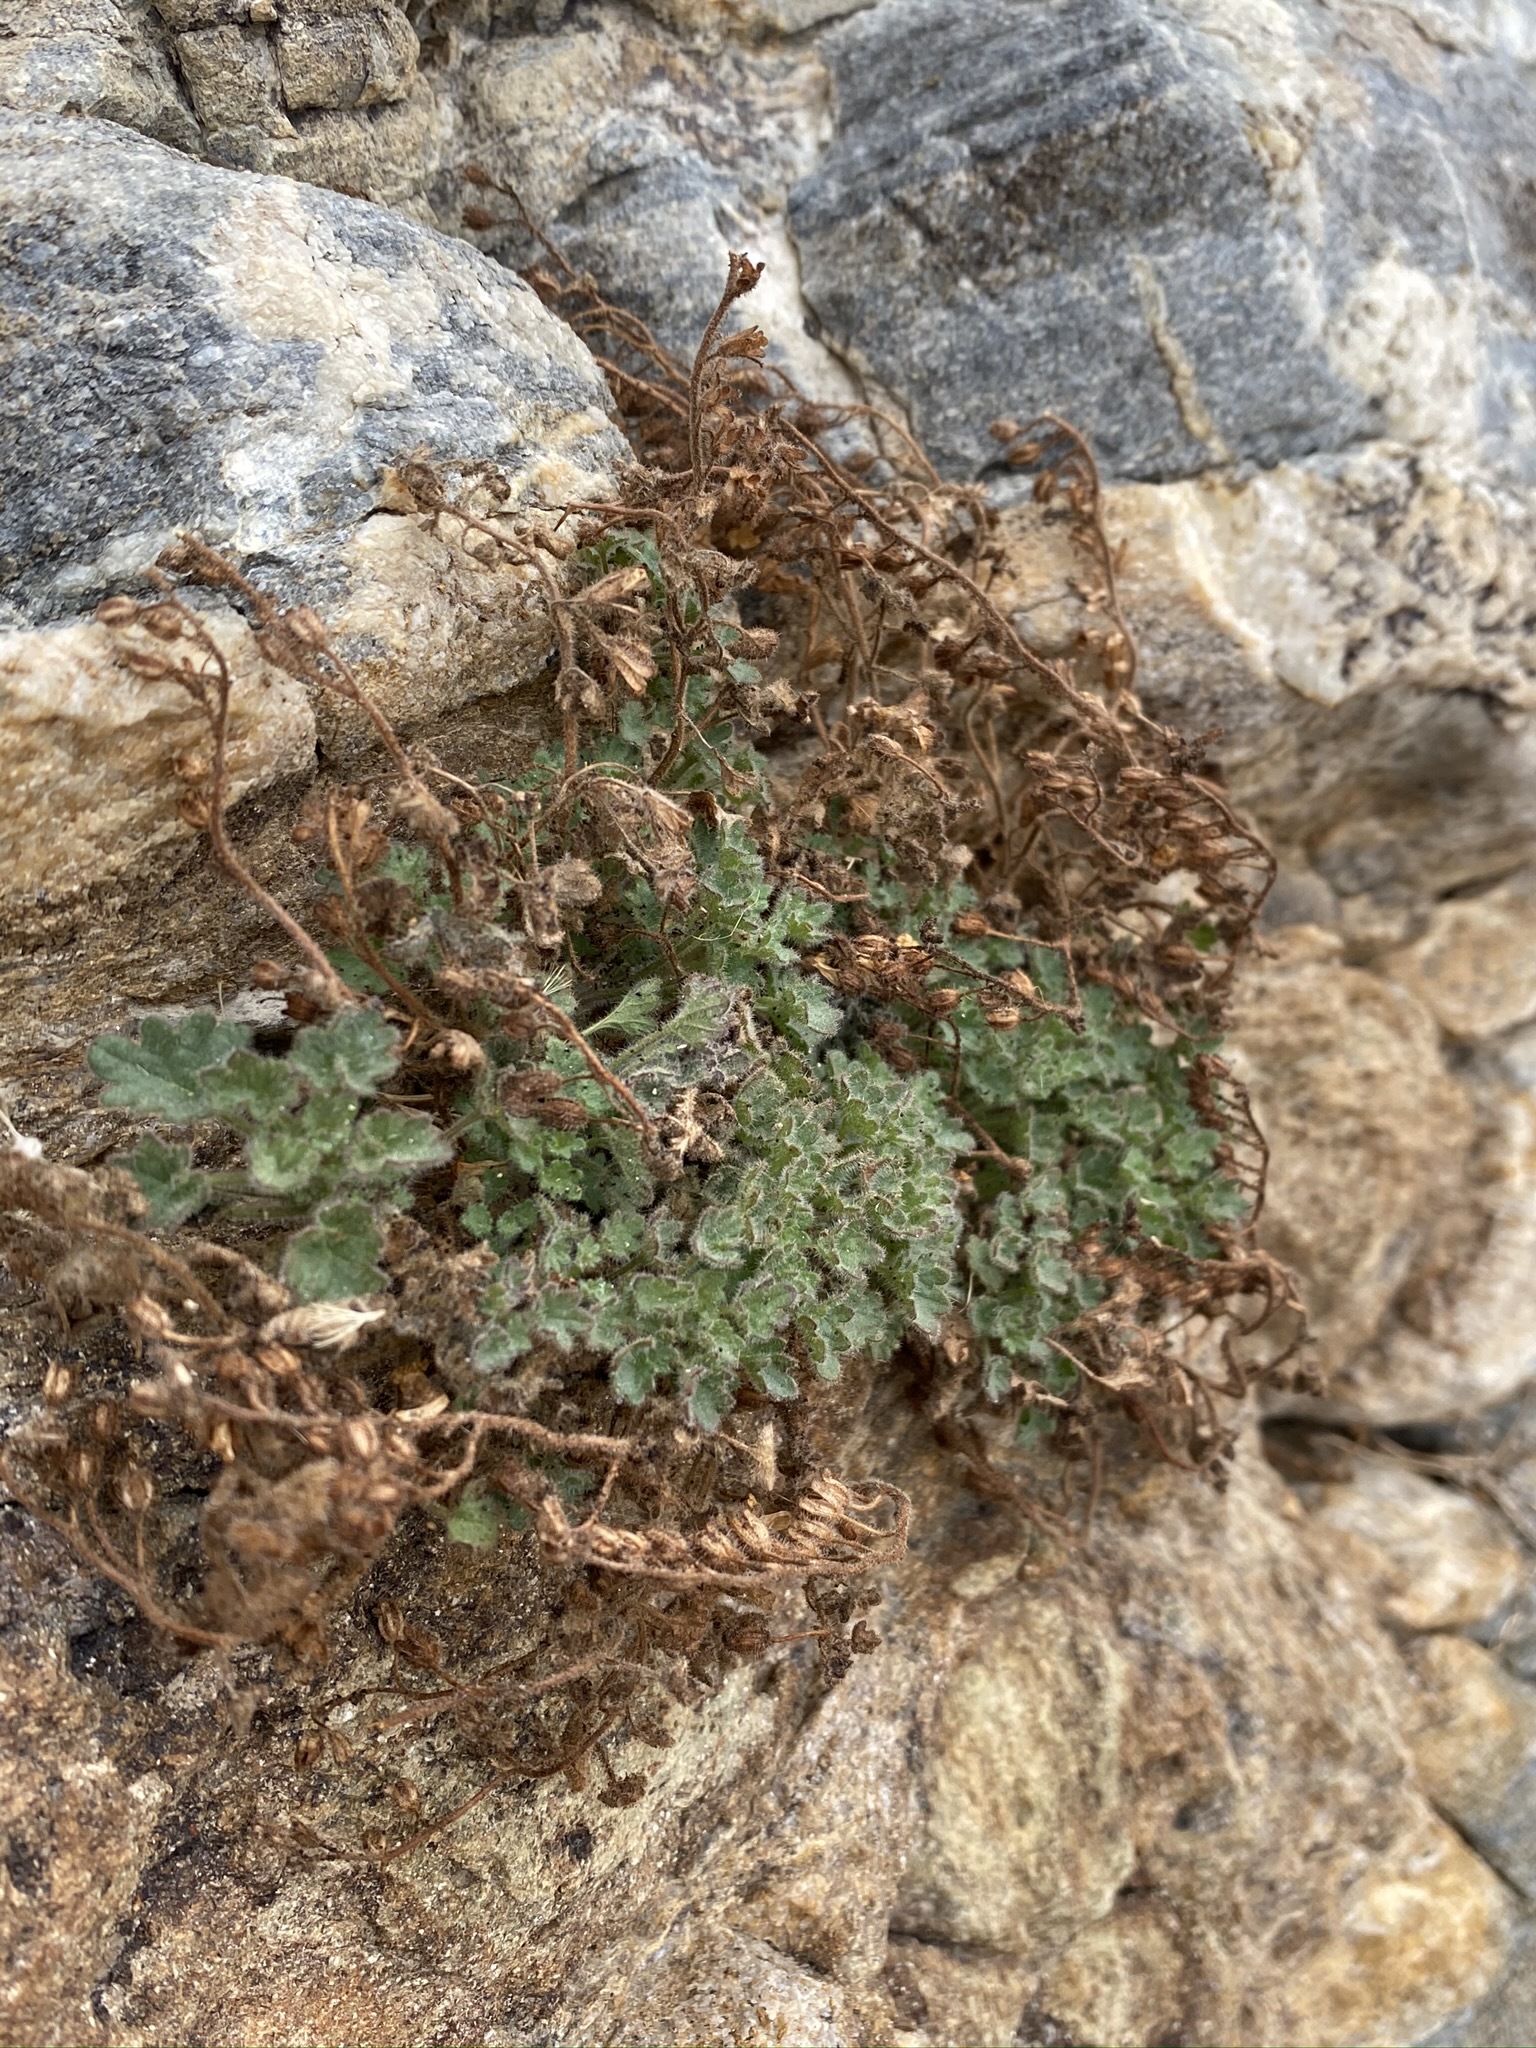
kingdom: Plantae
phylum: Tracheophyta
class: Magnoliopsida
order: Boraginales
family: Hydrophyllaceae
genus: Phacelia
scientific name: Phacelia perityloides
